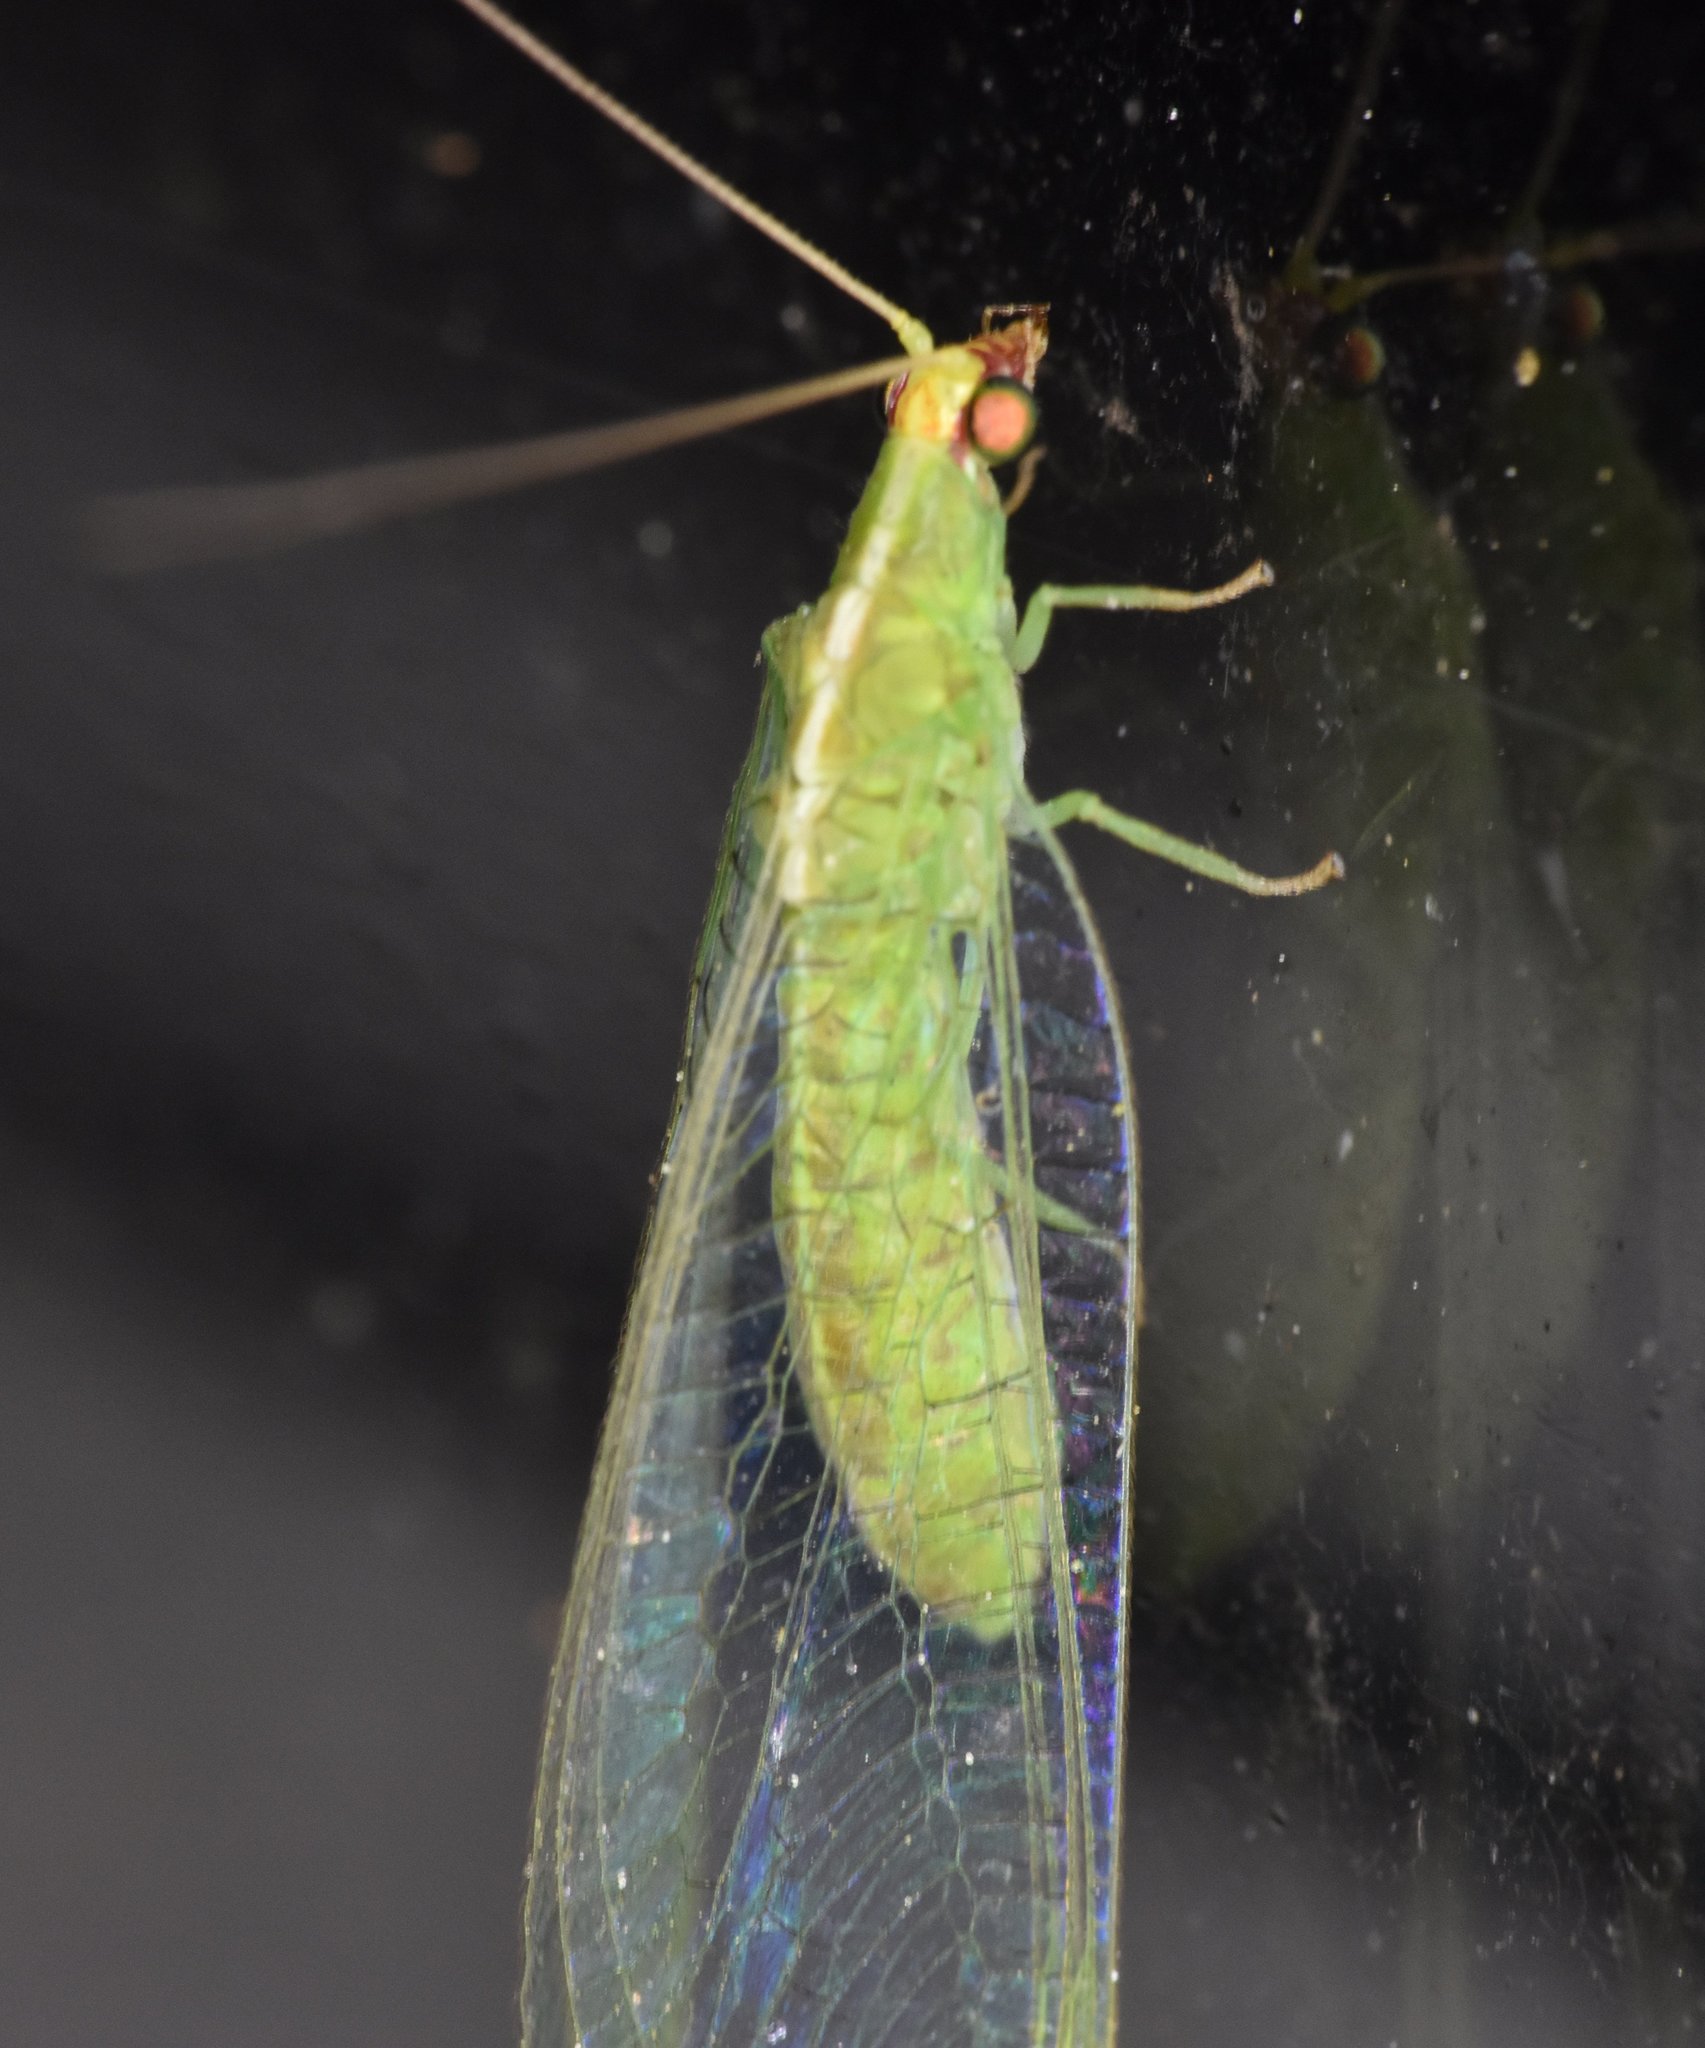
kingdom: Animalia
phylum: Arthropoda
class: Insecta
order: Neuroptera
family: Chrysopidae
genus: Chrysopodes
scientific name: Chrysopodes collaris
